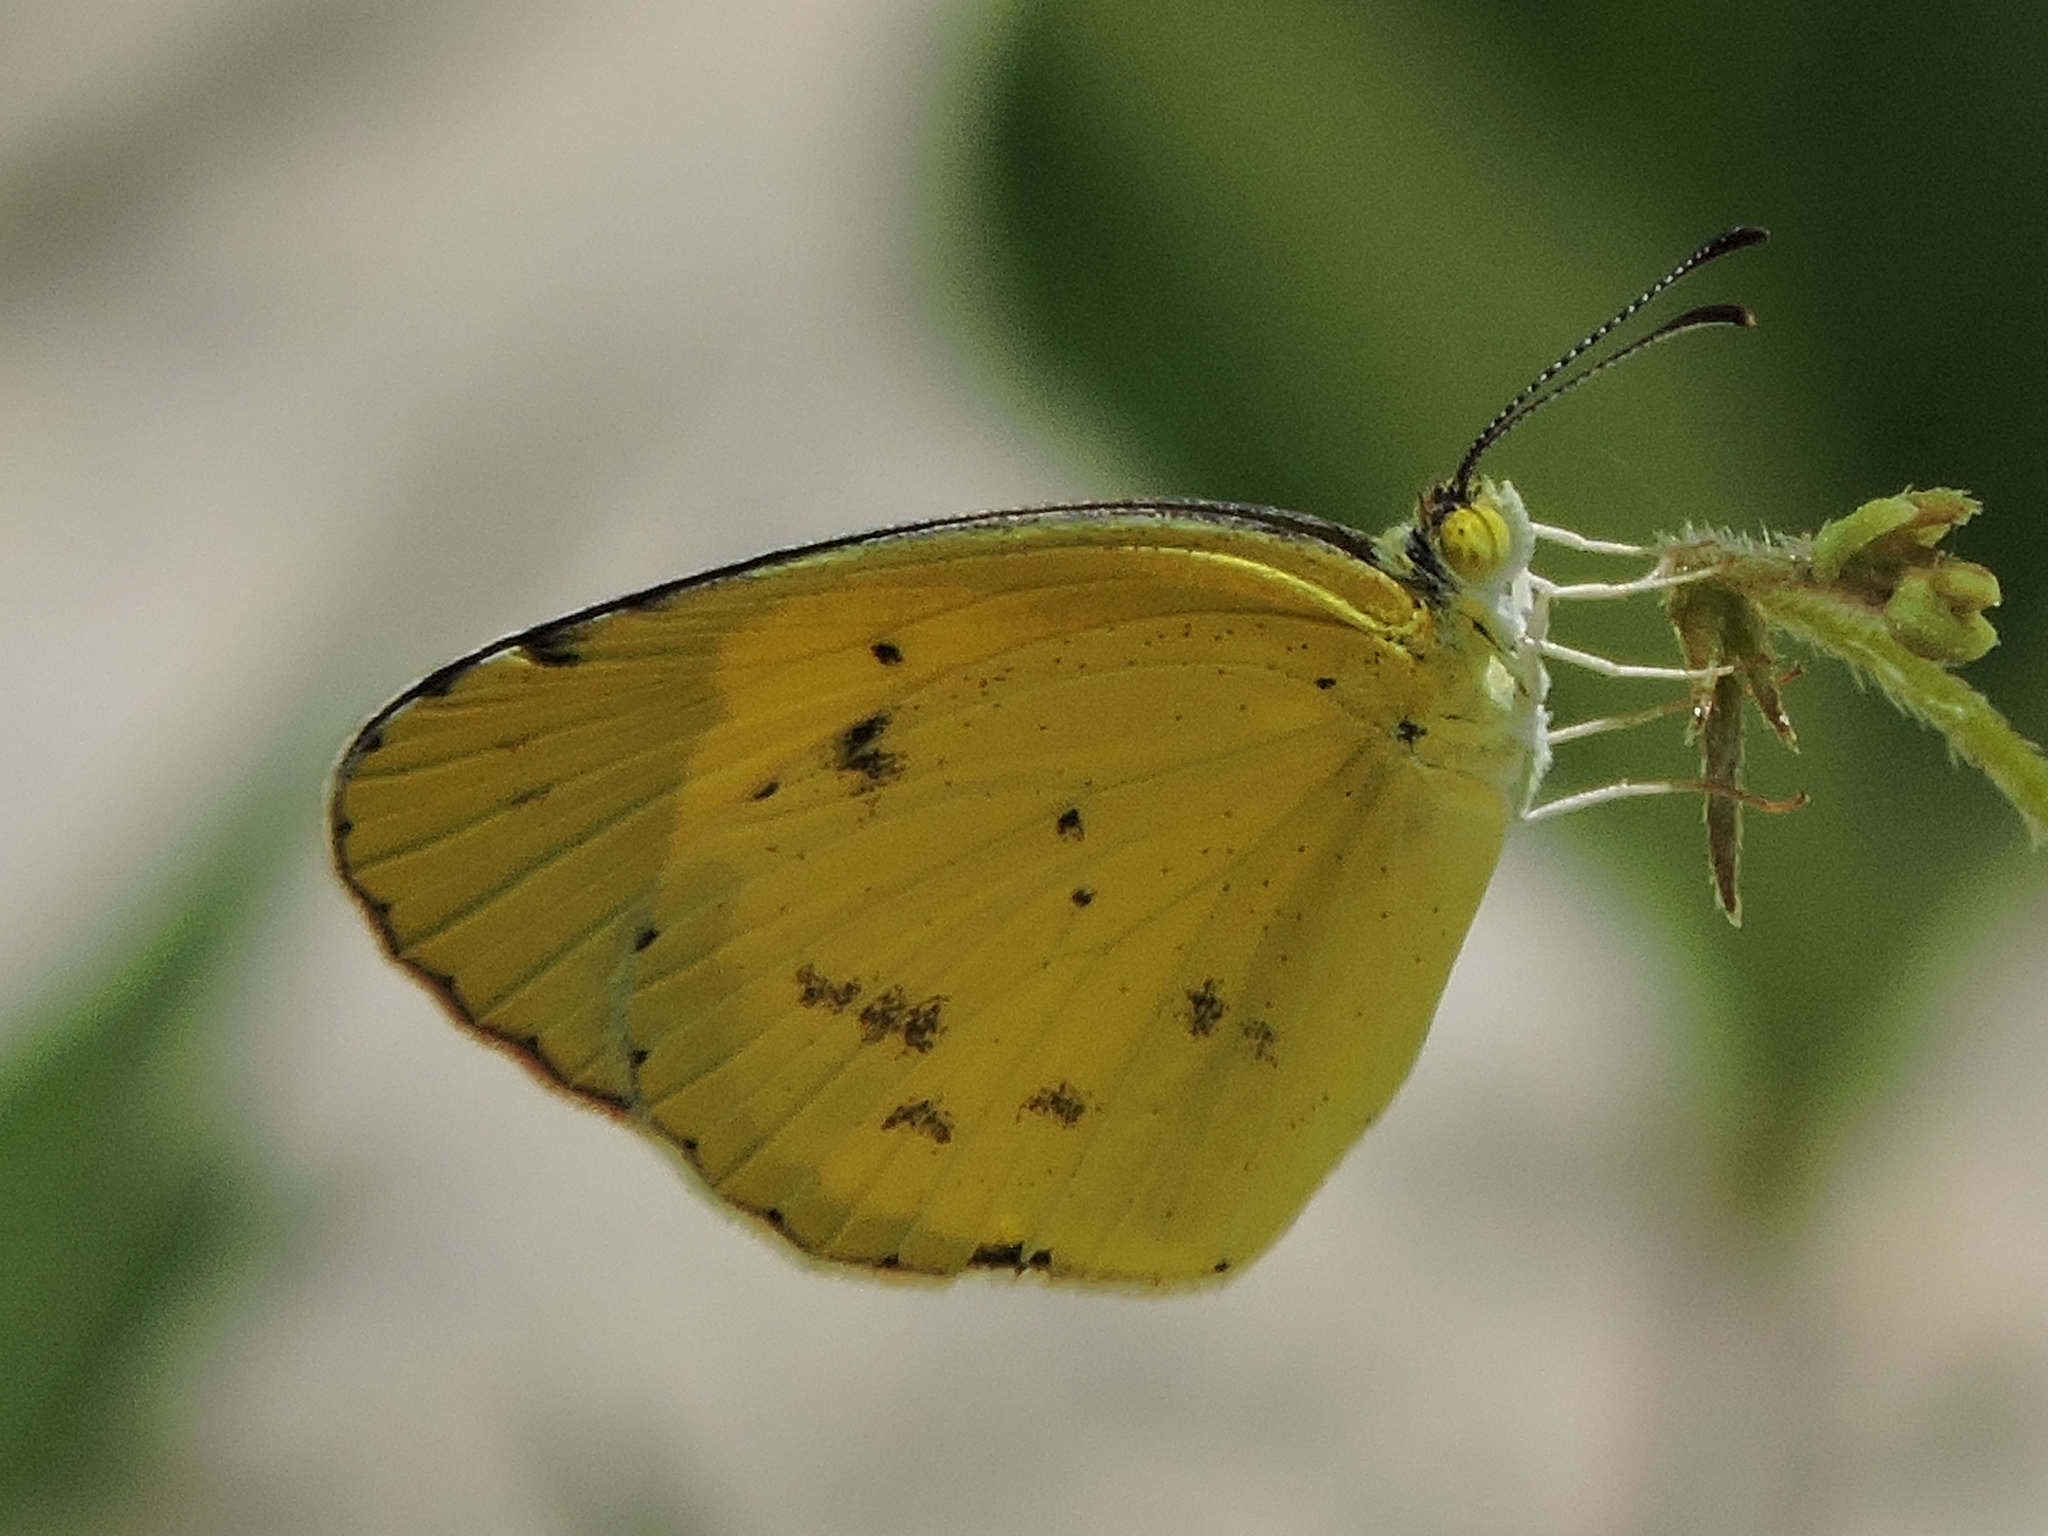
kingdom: Animalia
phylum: Arthropoda
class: Insecta
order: Lepidoptera
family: Pieridae
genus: Pyrisitia
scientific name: Pyrisitia lisa
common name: Little yellow
